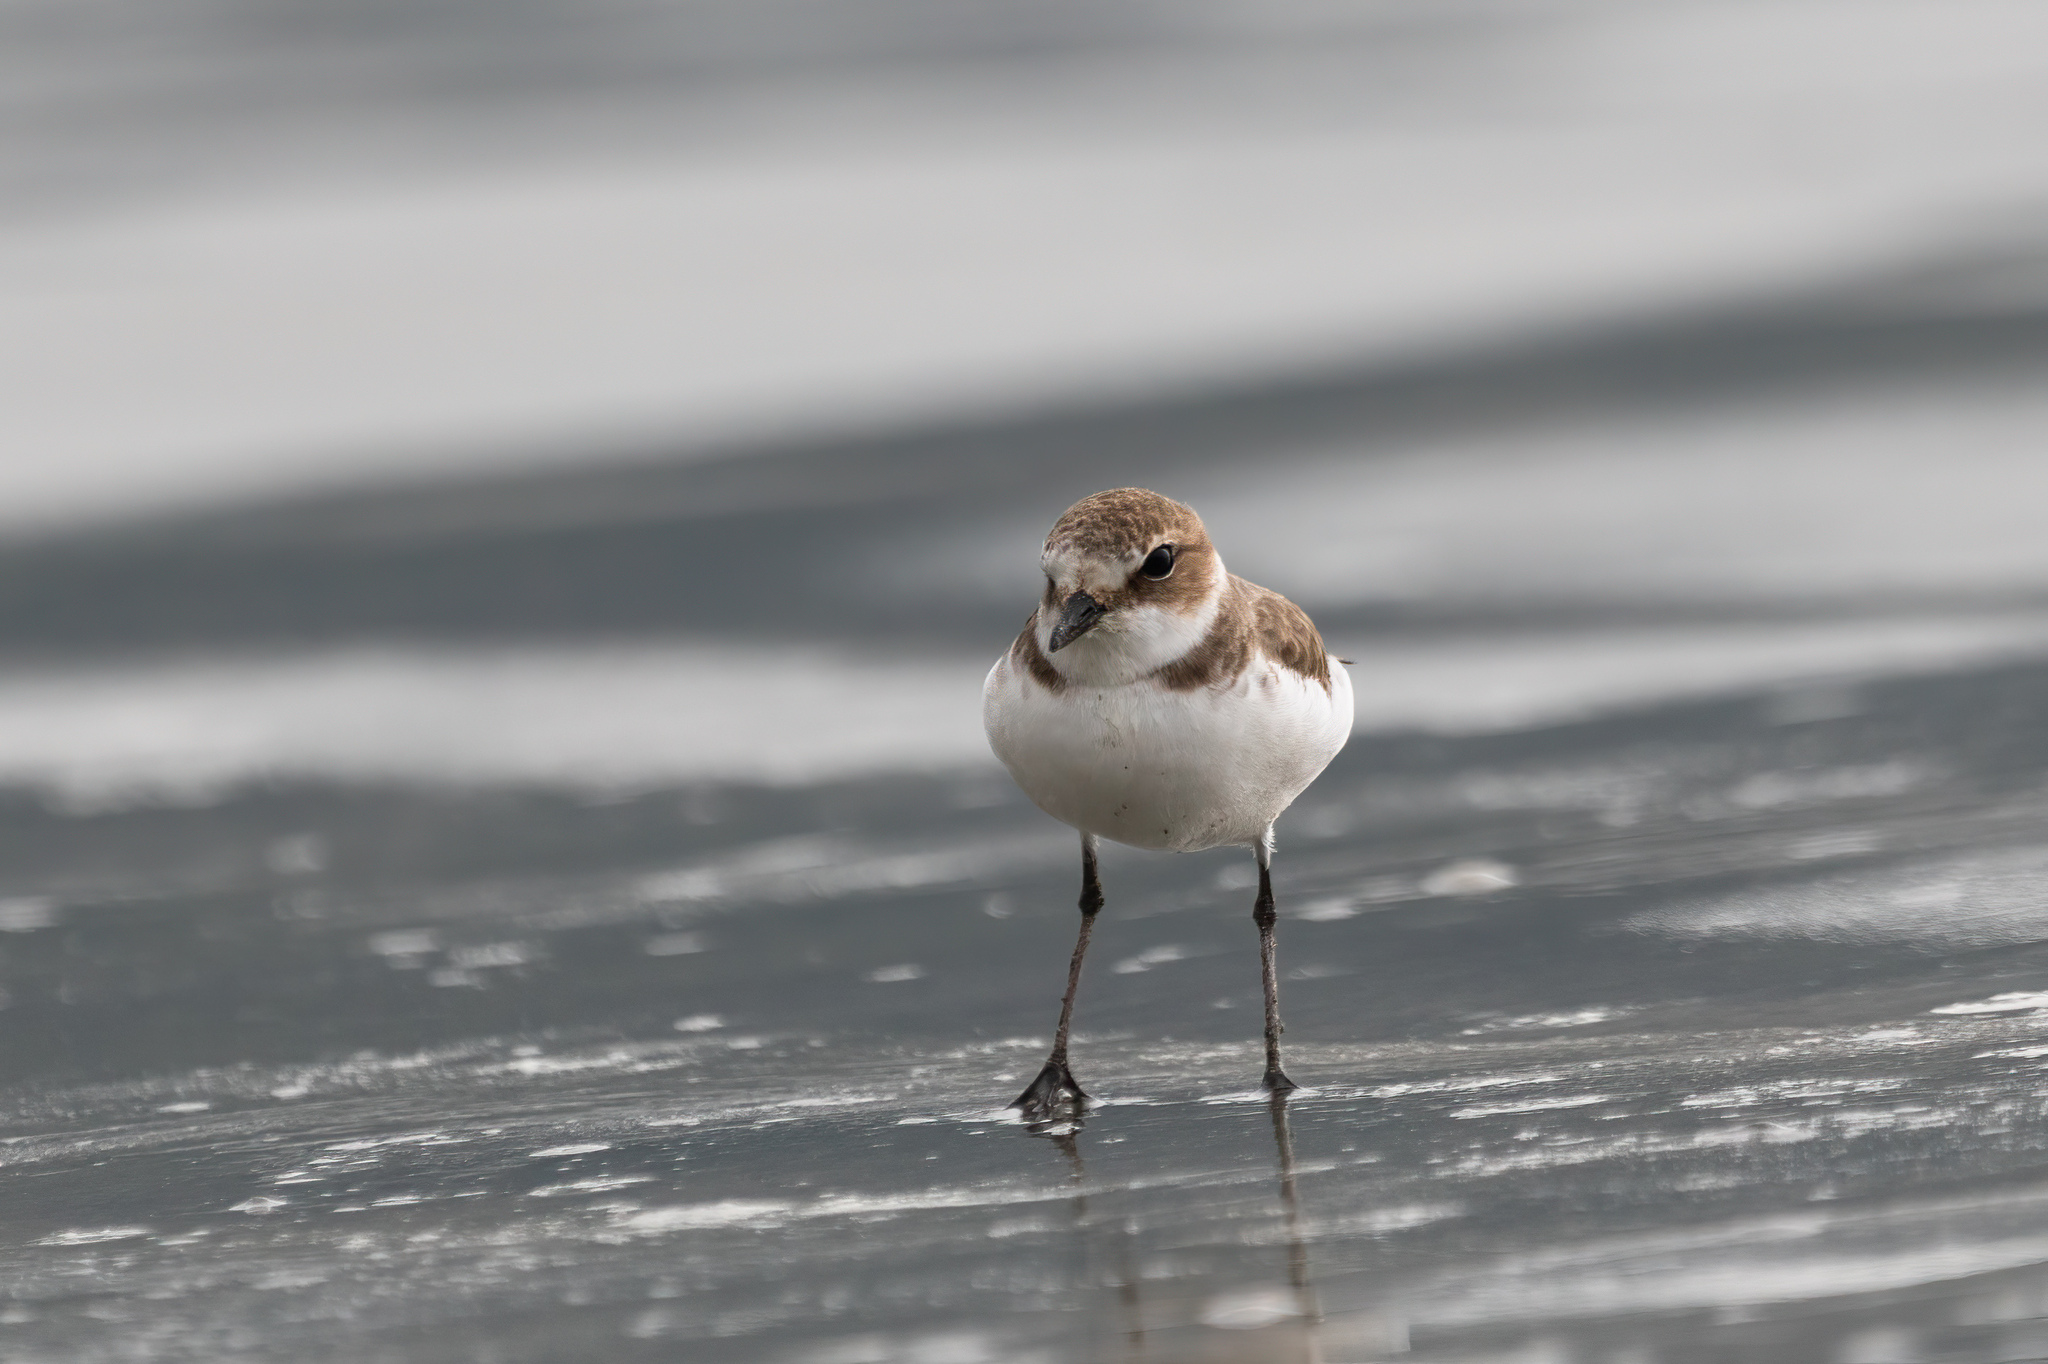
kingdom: Animalia
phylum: Chordata
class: Aves
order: Charadriiformes
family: Charadriidae
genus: Charadrius
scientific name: Charadrius alexandrinus
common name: Kentish plover
